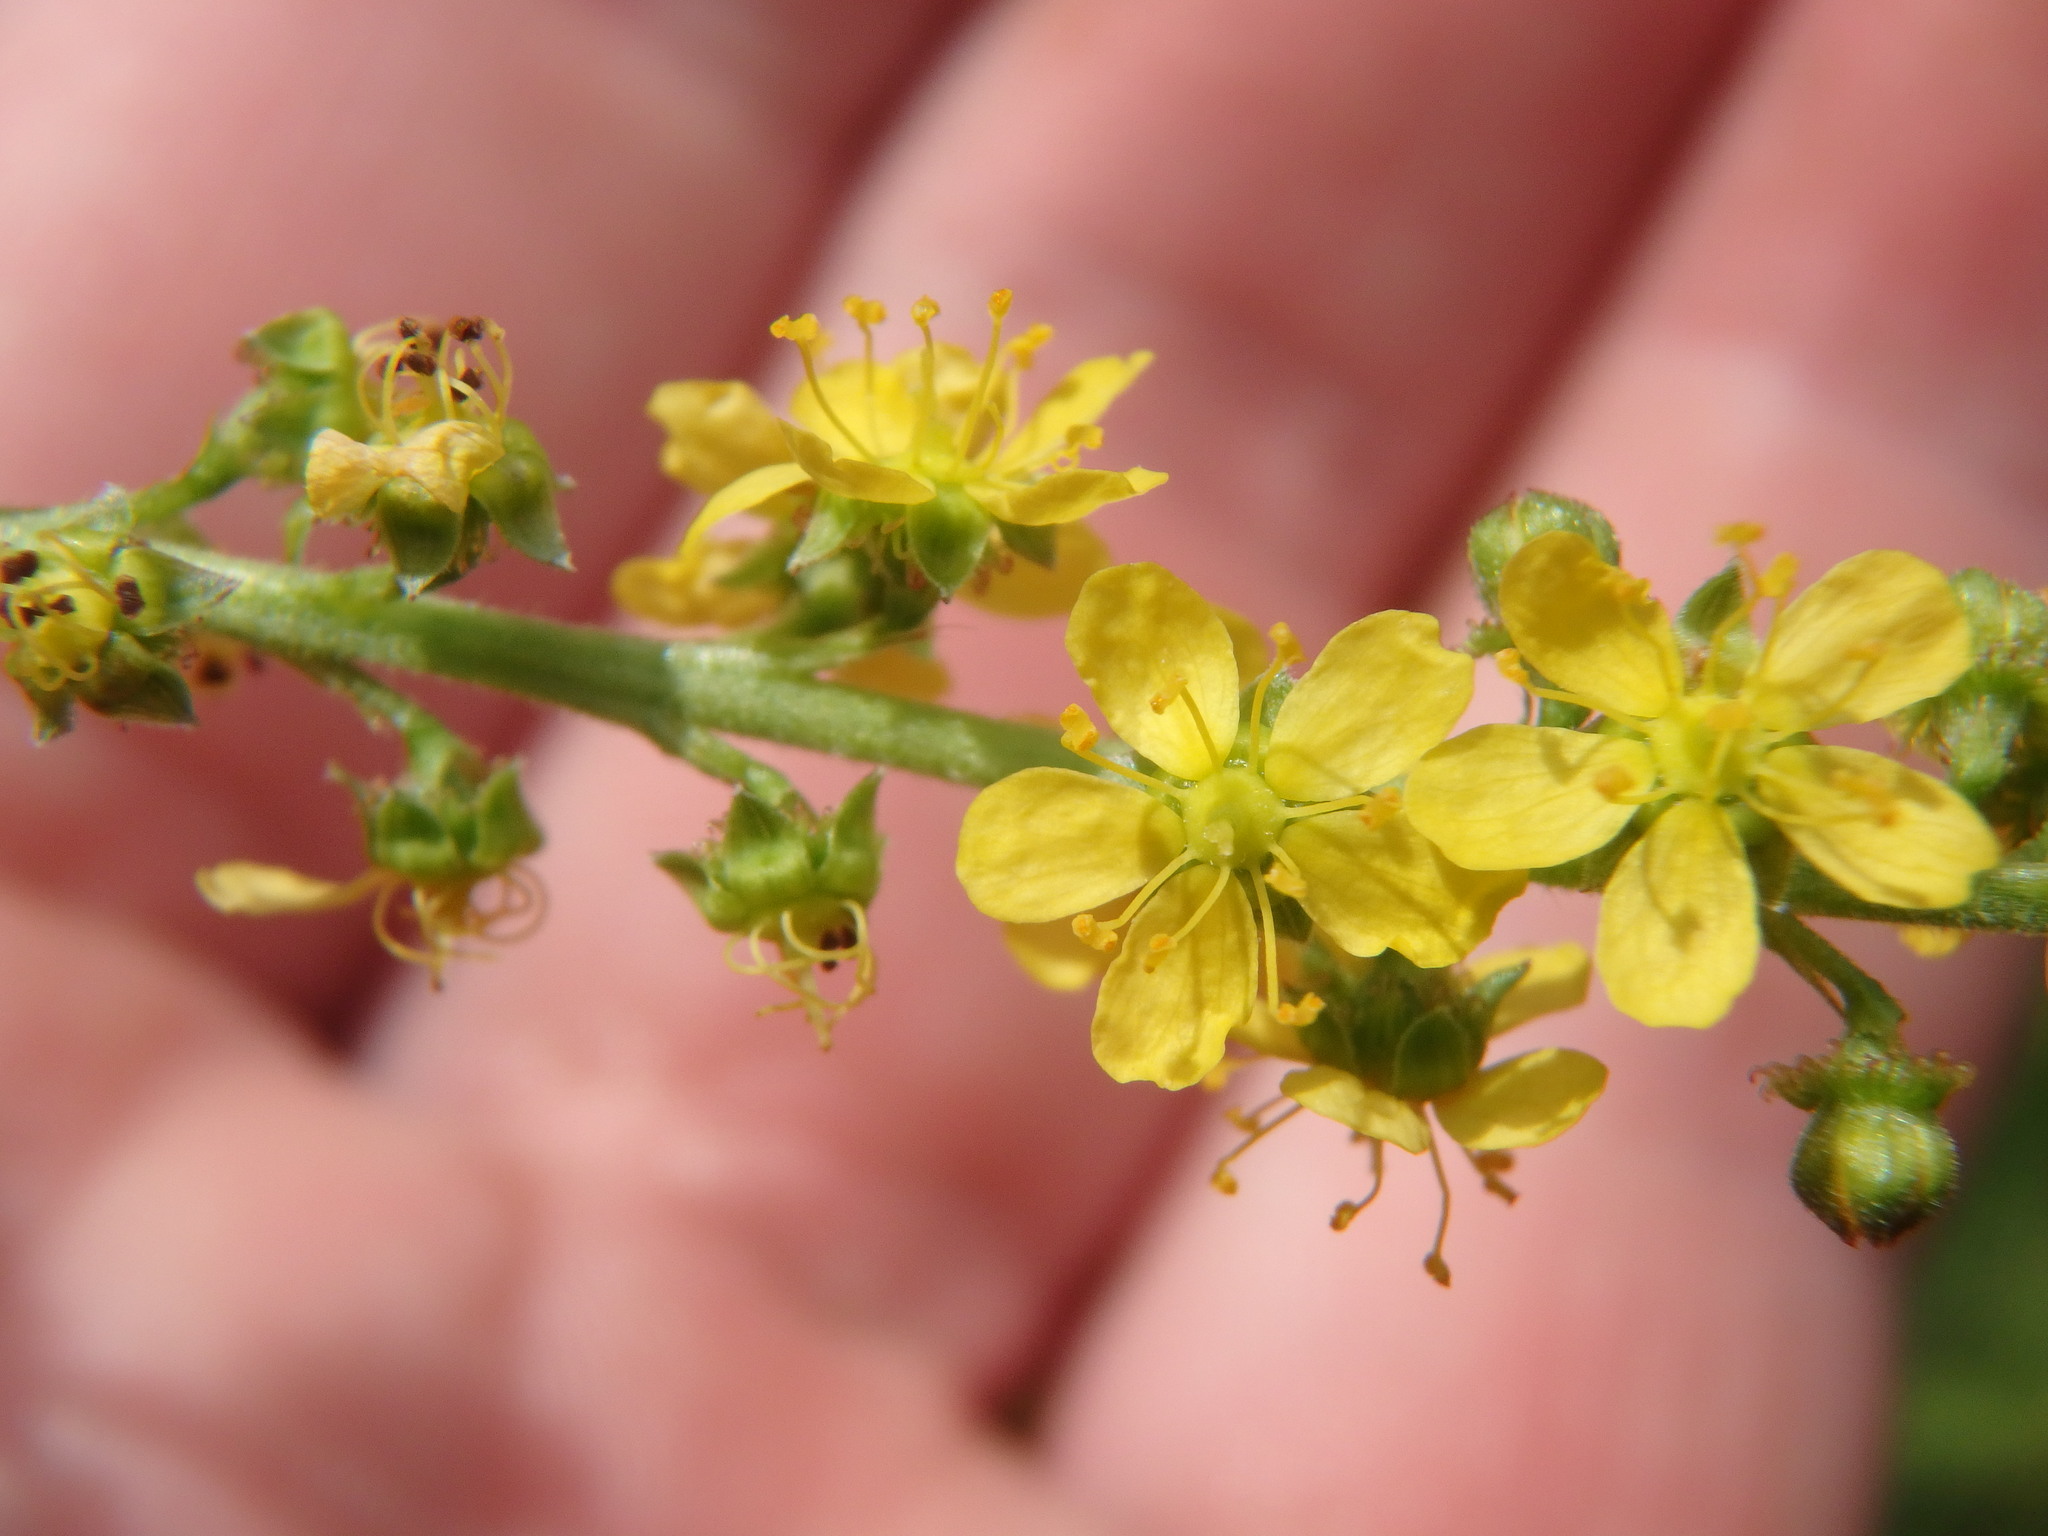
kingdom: Plantae
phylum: Tracheophyta
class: Magnoliopsida
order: Rosales
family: Rosaceae
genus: Agrimonia
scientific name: Agrimonia parviflora
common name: Harvest-lice
